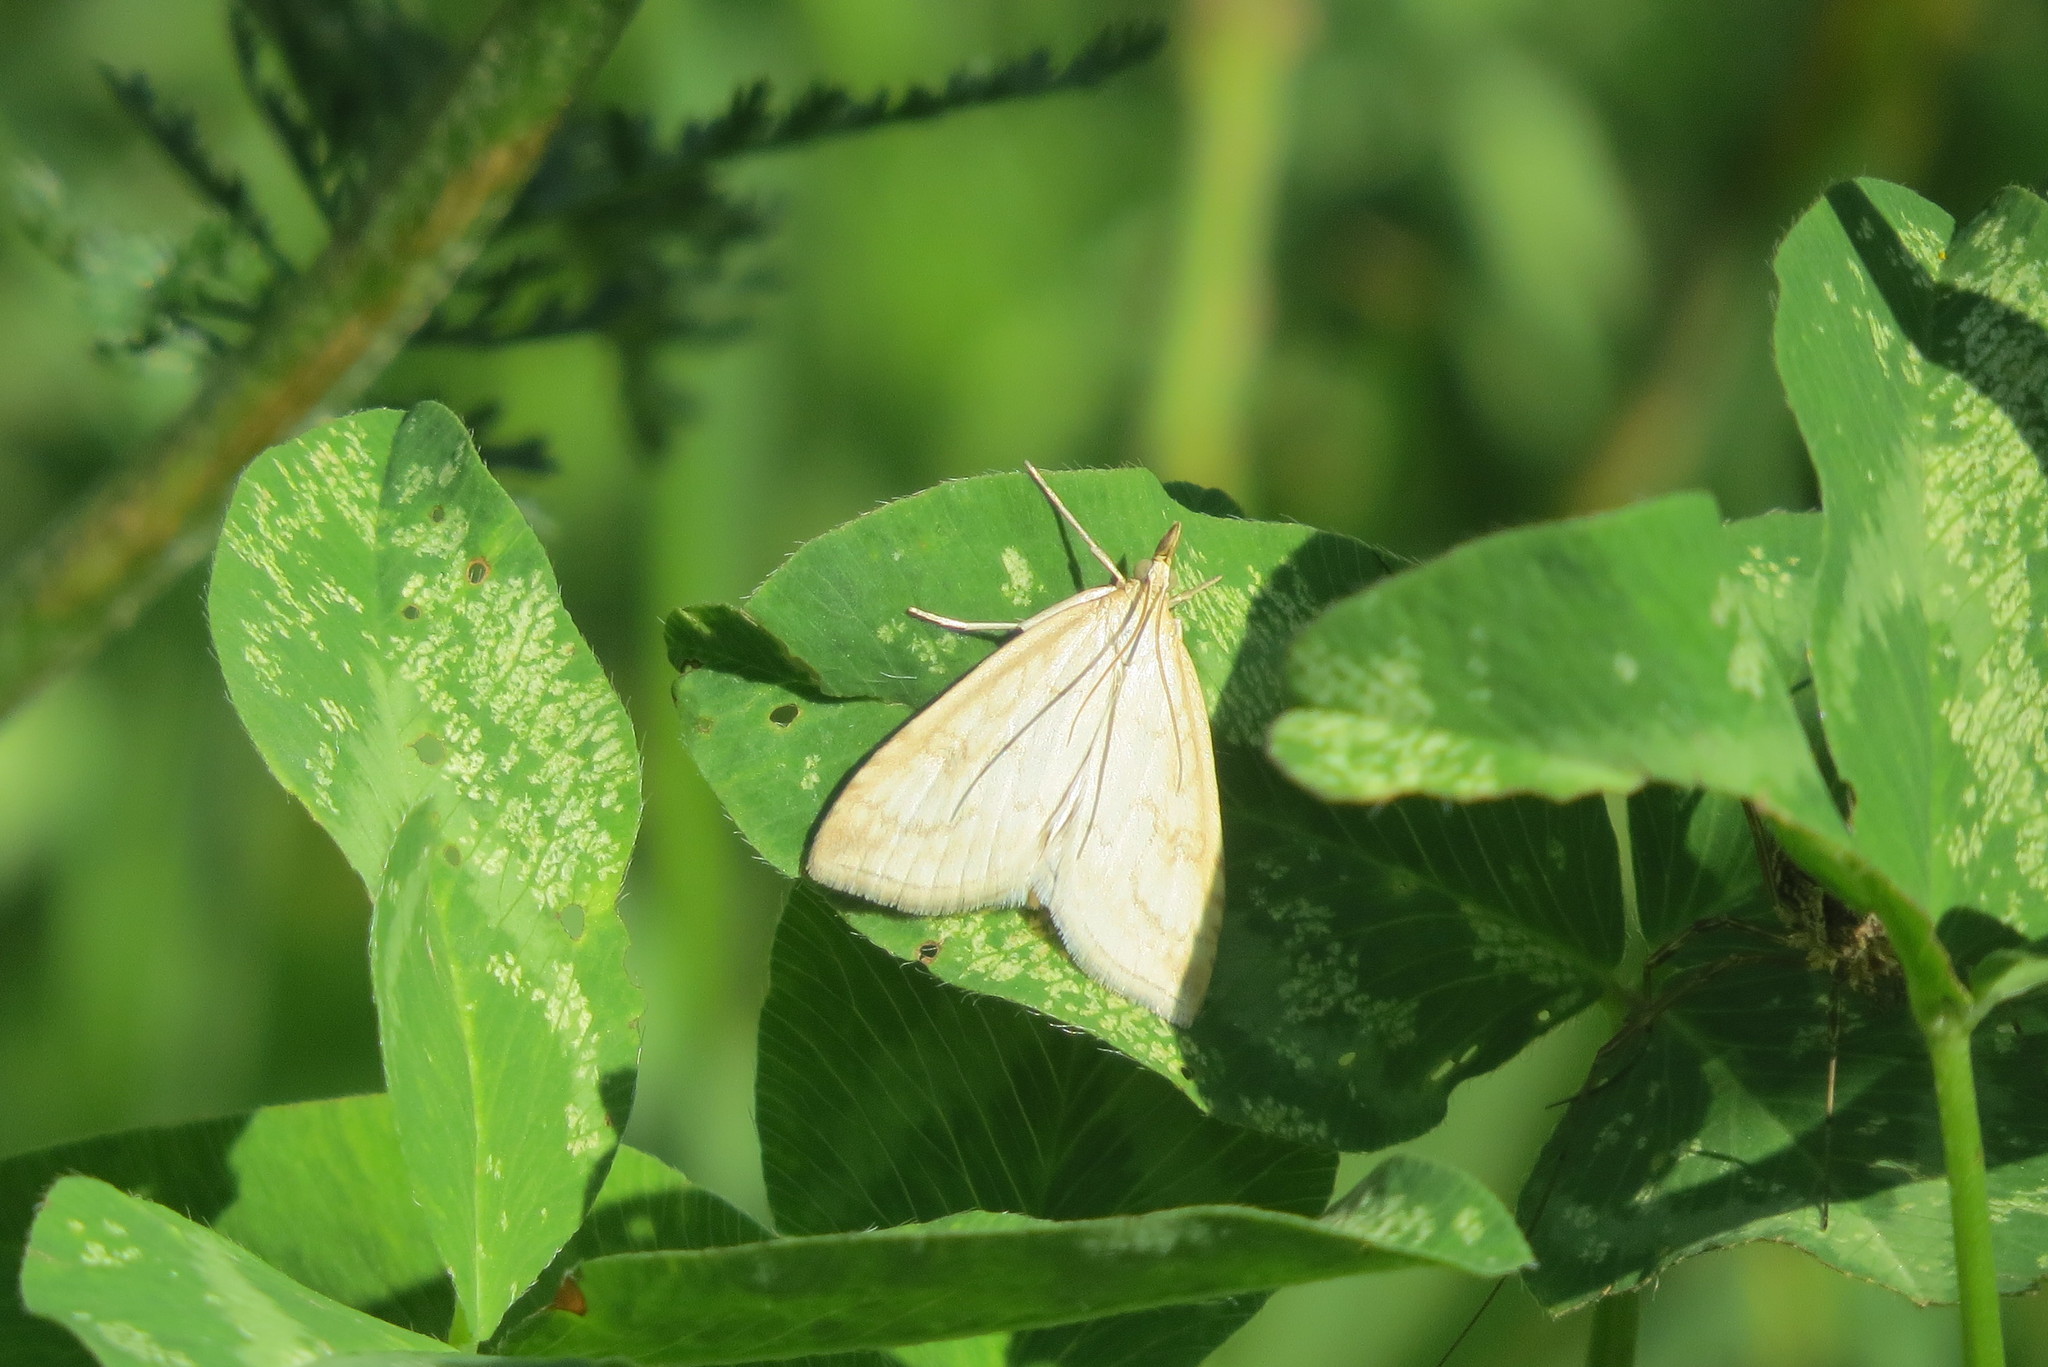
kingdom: Animalia
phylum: Arthropoda
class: Insecta
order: Lepidoptera
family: Crambidae
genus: Udea
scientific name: Udea lutealis
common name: Pale straw pearl
